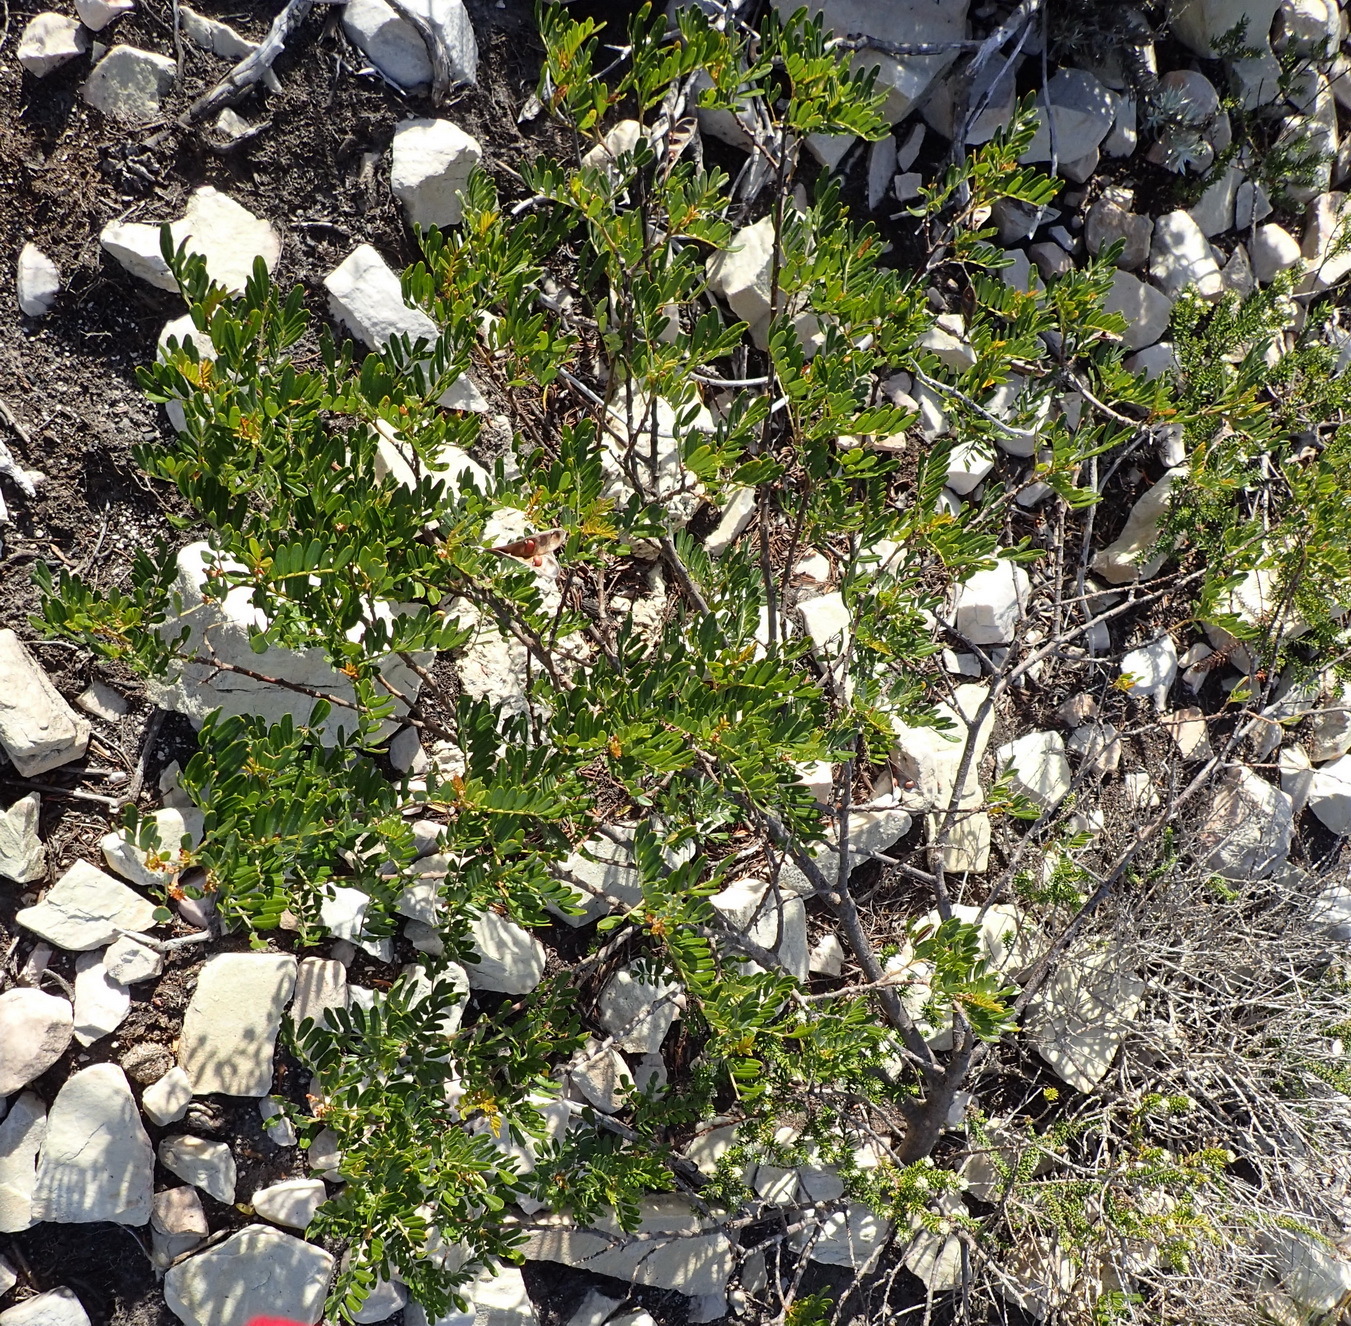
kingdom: Plantae
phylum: Tracheophyta
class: Magnoliopsida
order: Fabales
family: Fabaceae
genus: Virgilia
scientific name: Virgilia divaricata
